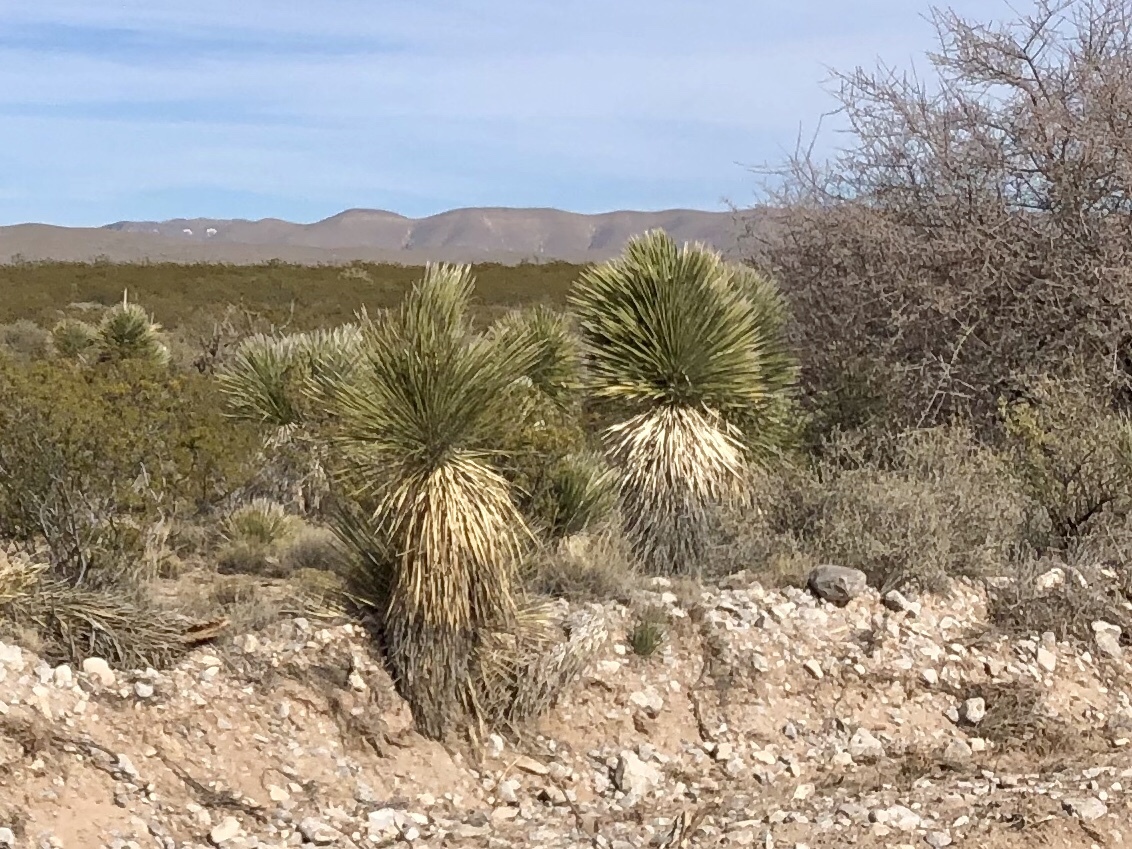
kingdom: Plantae
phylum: Tracheophyta
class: Liliopsida
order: Asparagales
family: Asparagaceae
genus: Yucca
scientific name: Yucca elata
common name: Palmella
